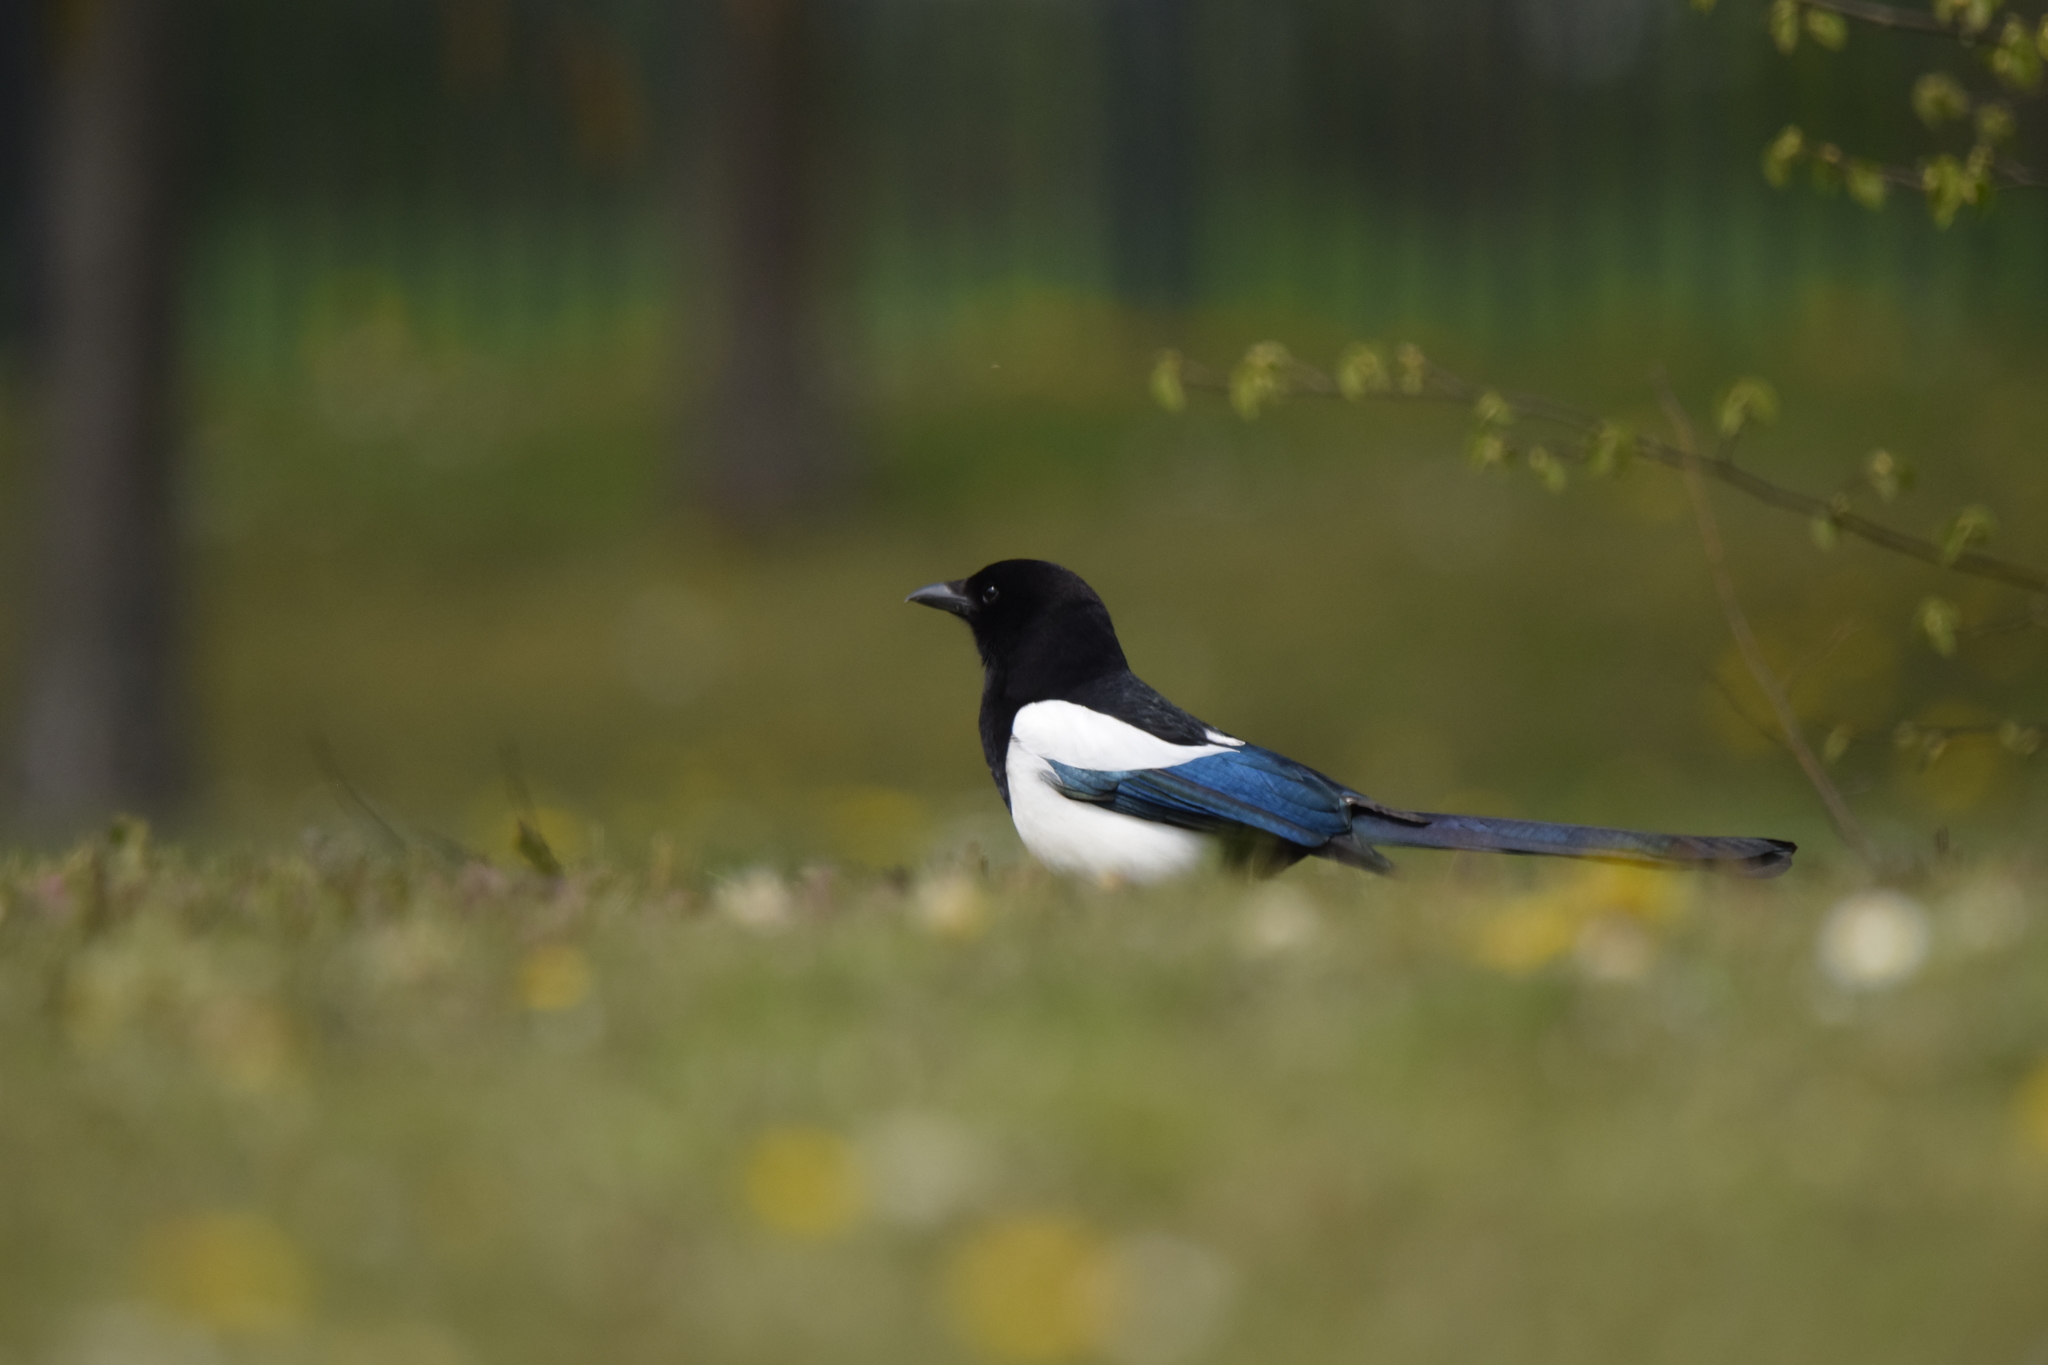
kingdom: Animalia
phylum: Chordata
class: Aves
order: Passeriformes
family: Corvidae
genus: Pica
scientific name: Pica pica
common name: Eurasian magpie
